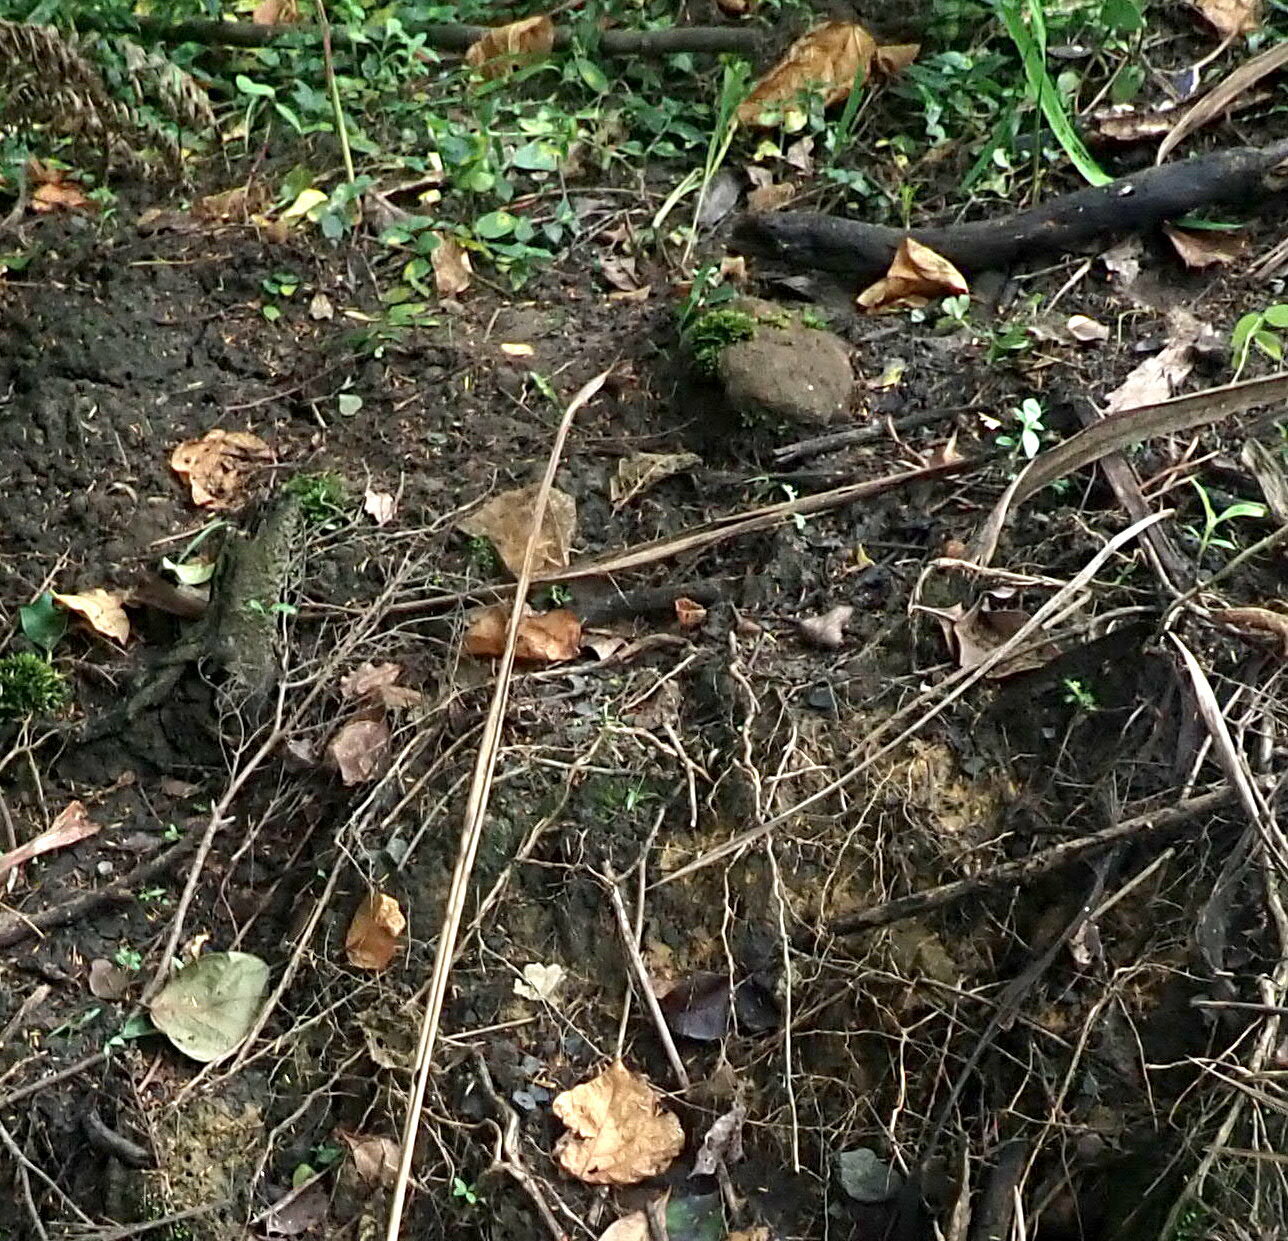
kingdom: Fungi
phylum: Basidiomycota
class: Agaricomycetes
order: Polyporales
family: Podoscyphaceae
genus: Podoscypha
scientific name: Podoscypha petalodes
